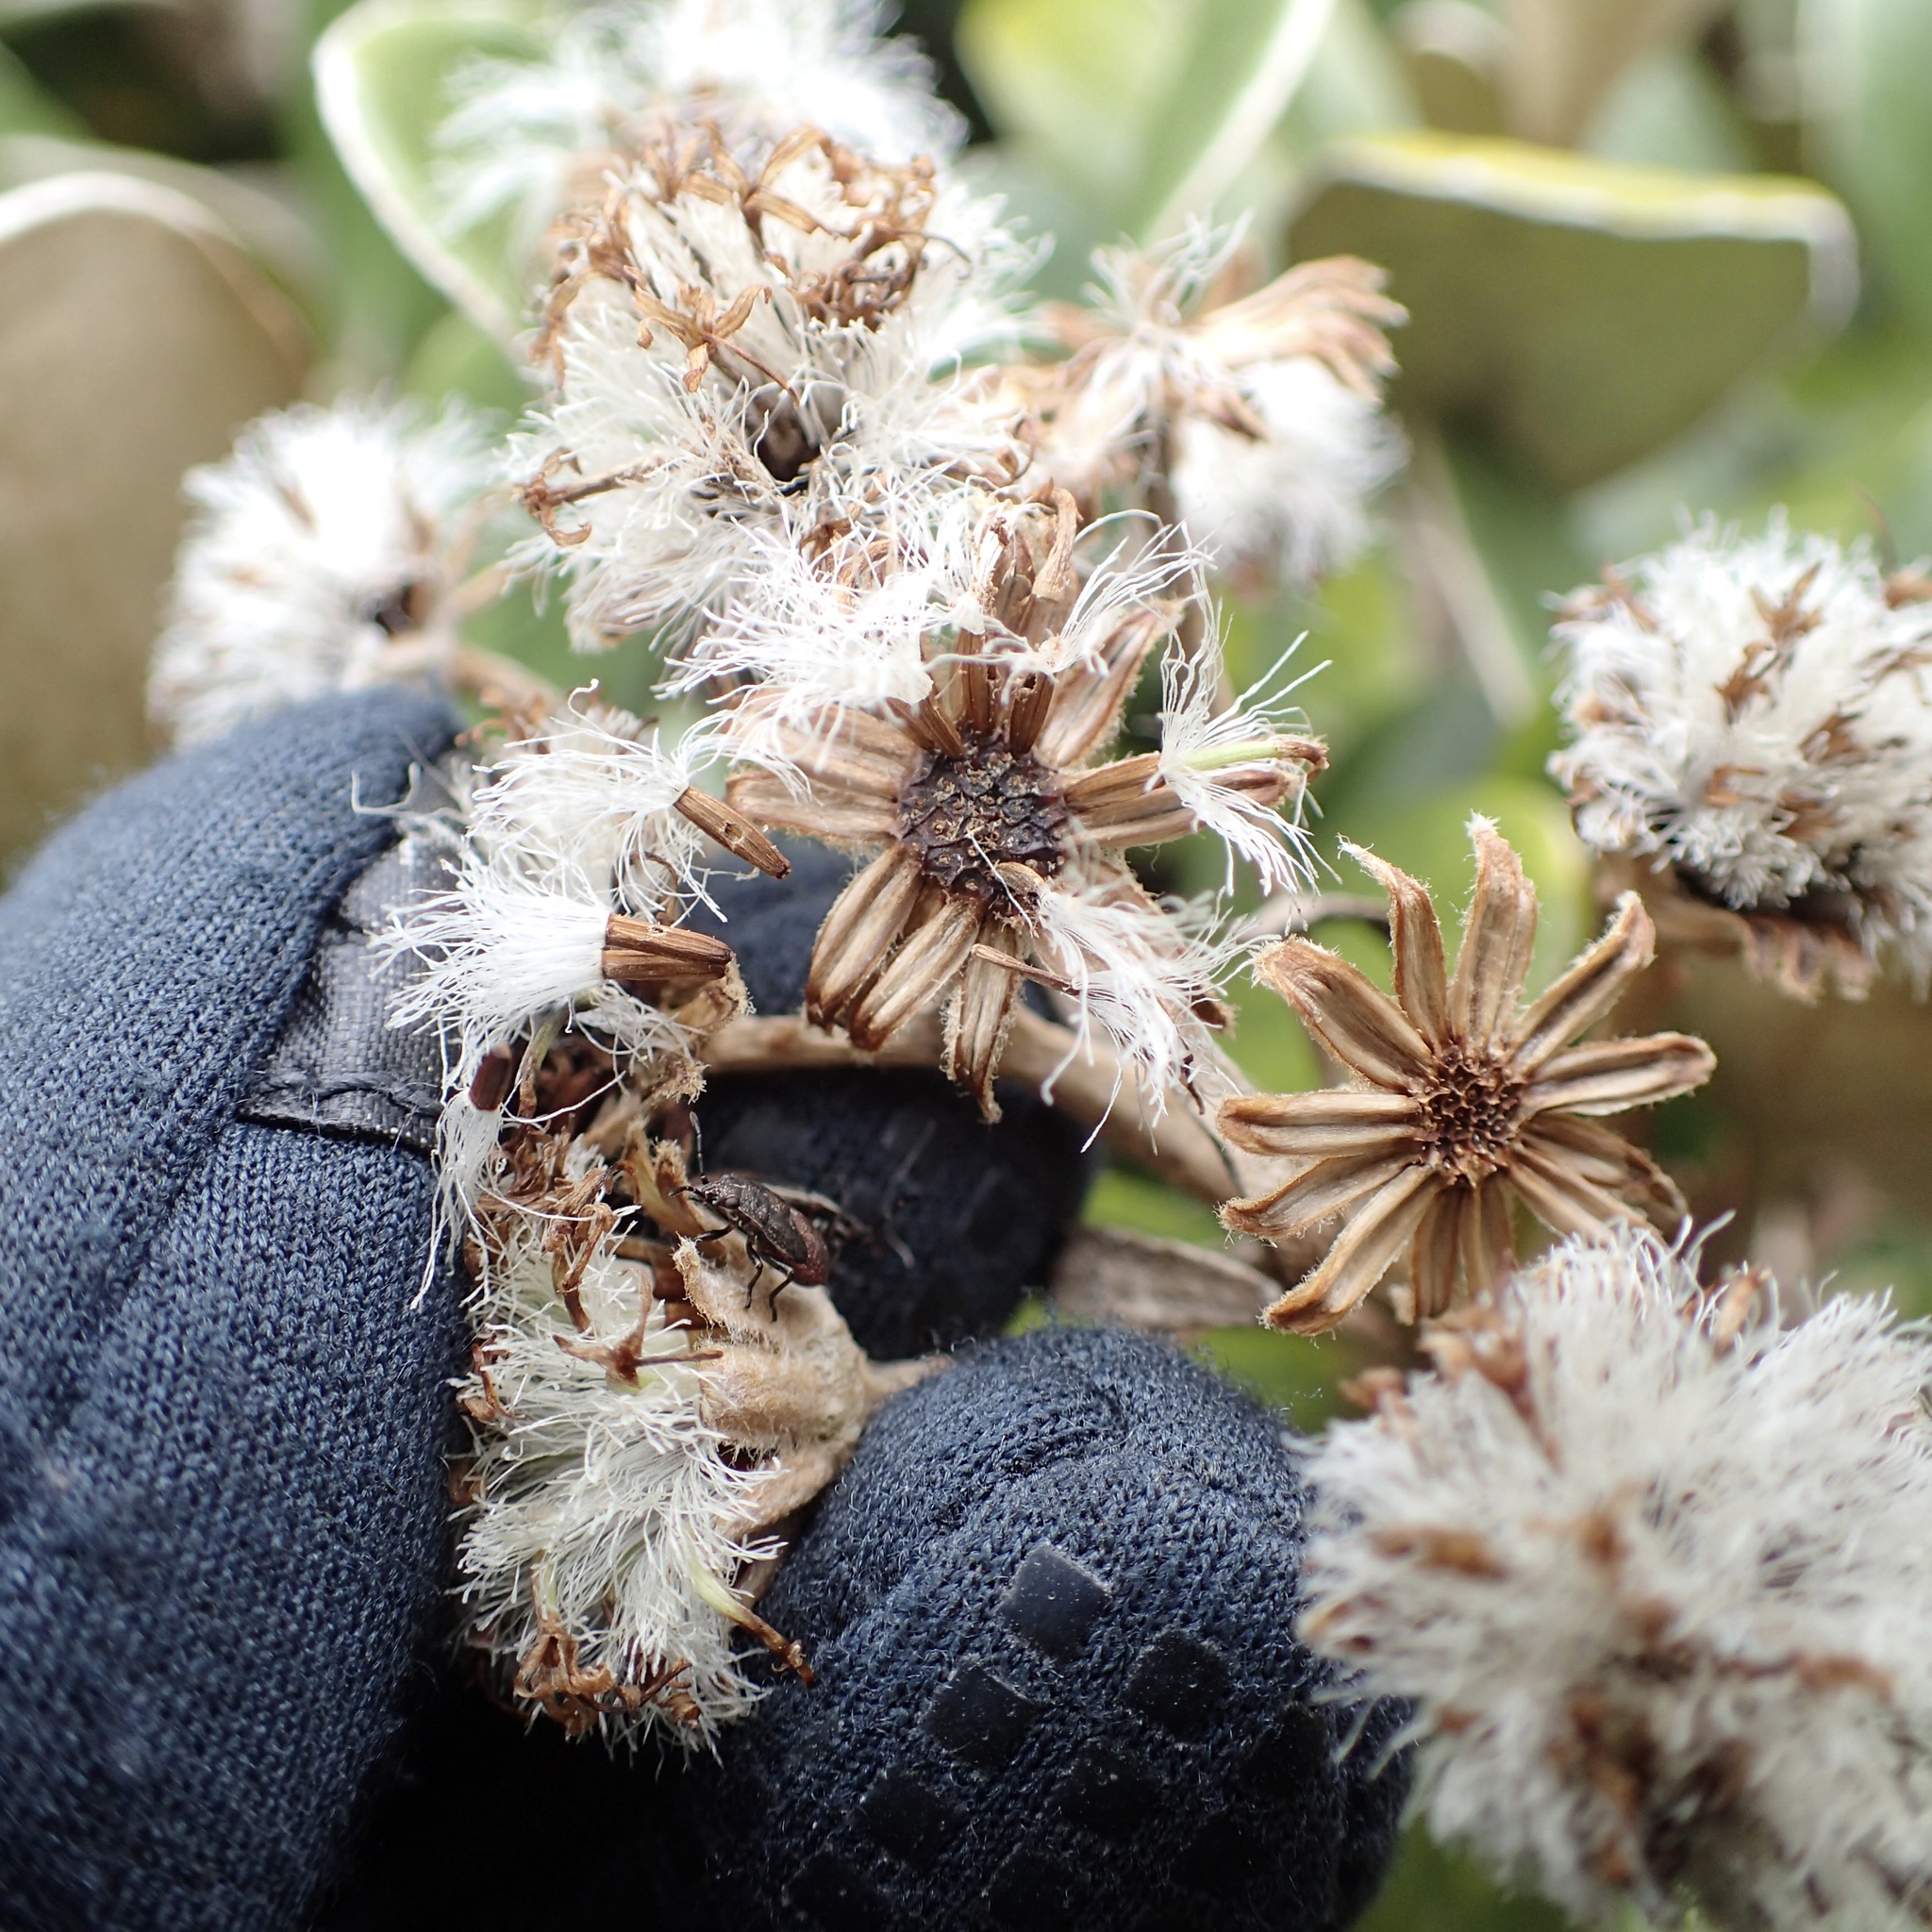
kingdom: Plantae
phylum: Tracheophyta
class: Magnoliopsida
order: Asterales
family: Asteraceae
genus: Brachyglottis
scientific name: Brachyglottis bidwillii
